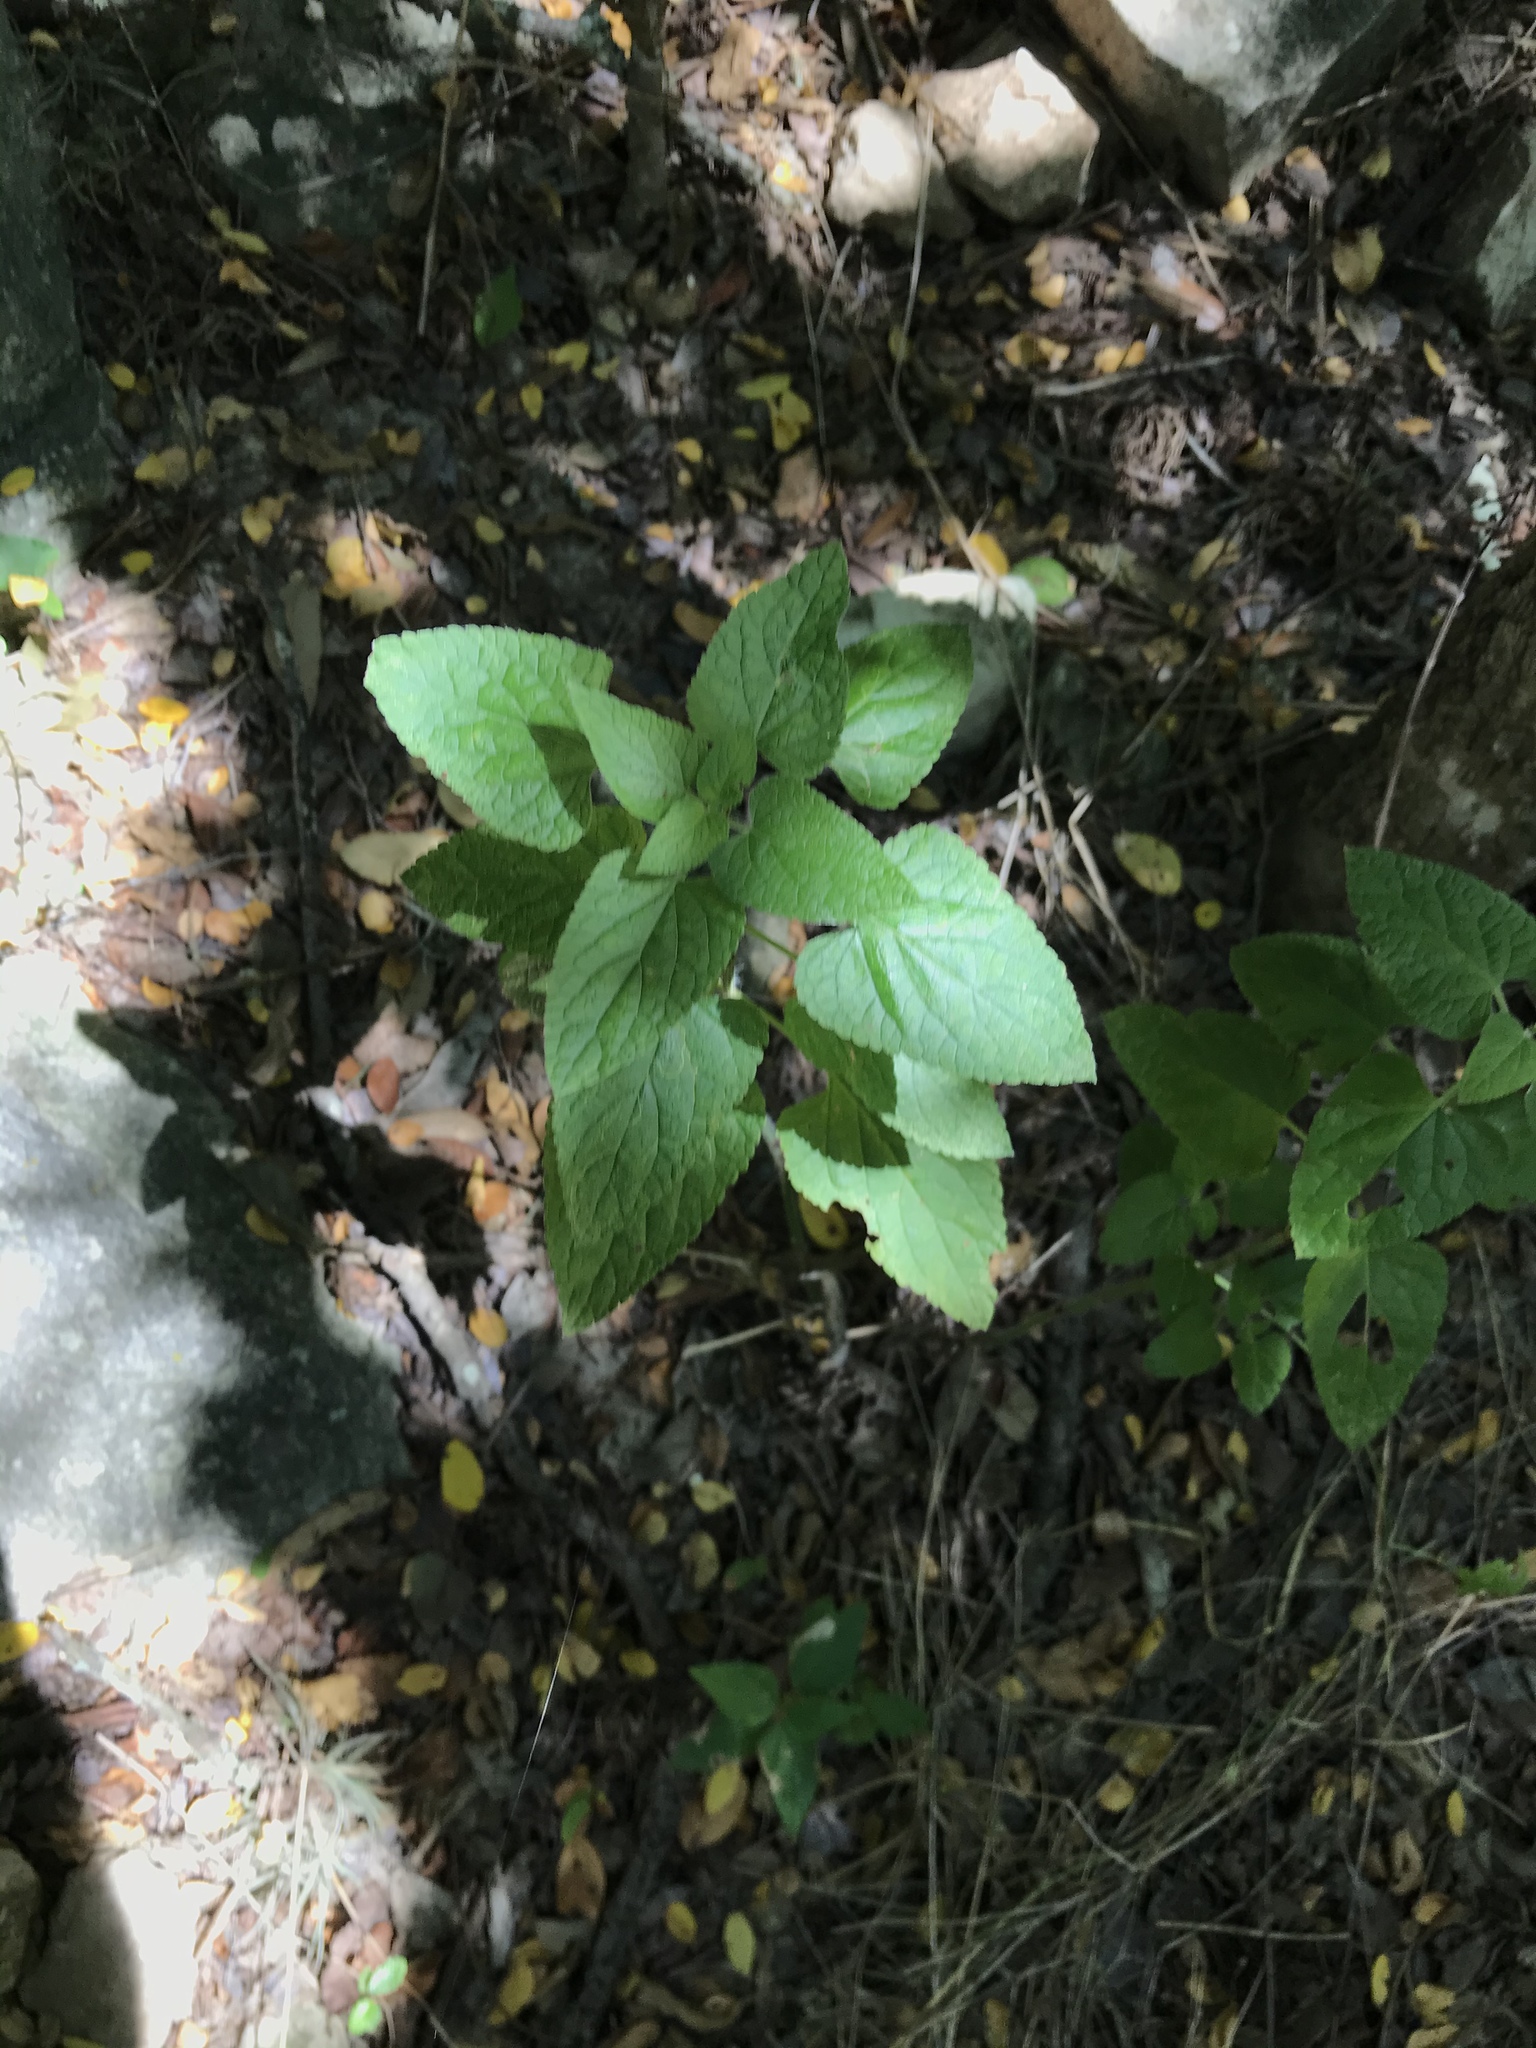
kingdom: Plantae
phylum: Tracheophyta
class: Magnoliopsida
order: Lamiales
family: Lamiaceae
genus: Salvia
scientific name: Salvia coccinea
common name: Blood sage
